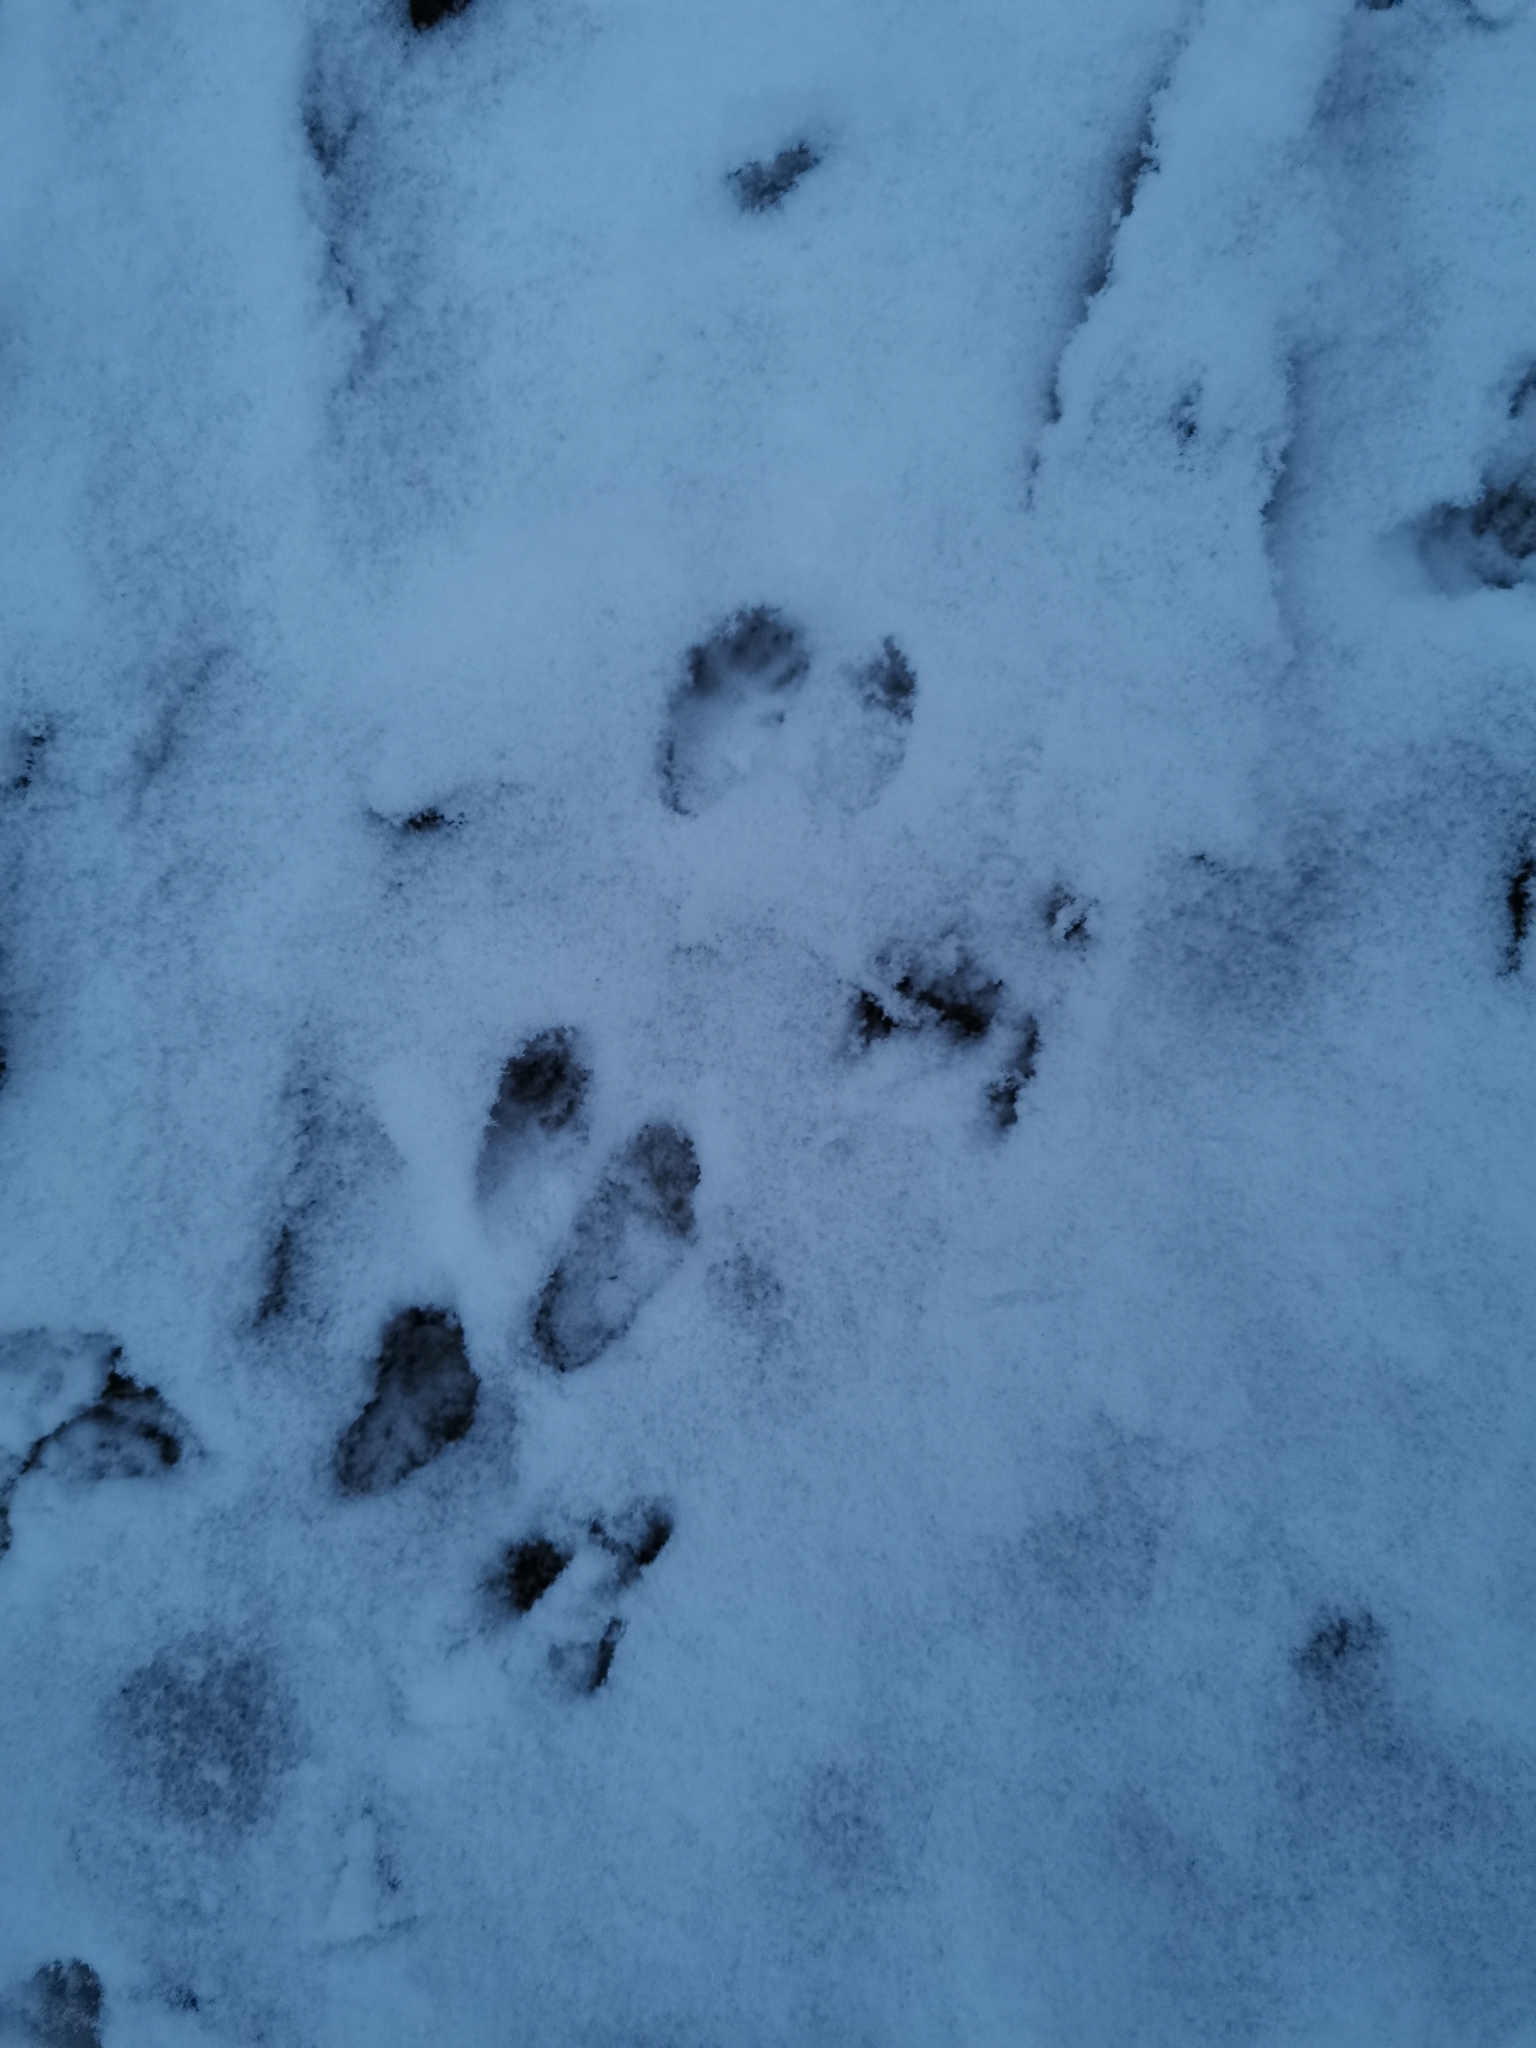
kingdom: Animalia
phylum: Chordata
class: Mammalia
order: Carnivora
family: Mustelidae
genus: Mustela
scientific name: Mustela erminea
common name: Stoat
